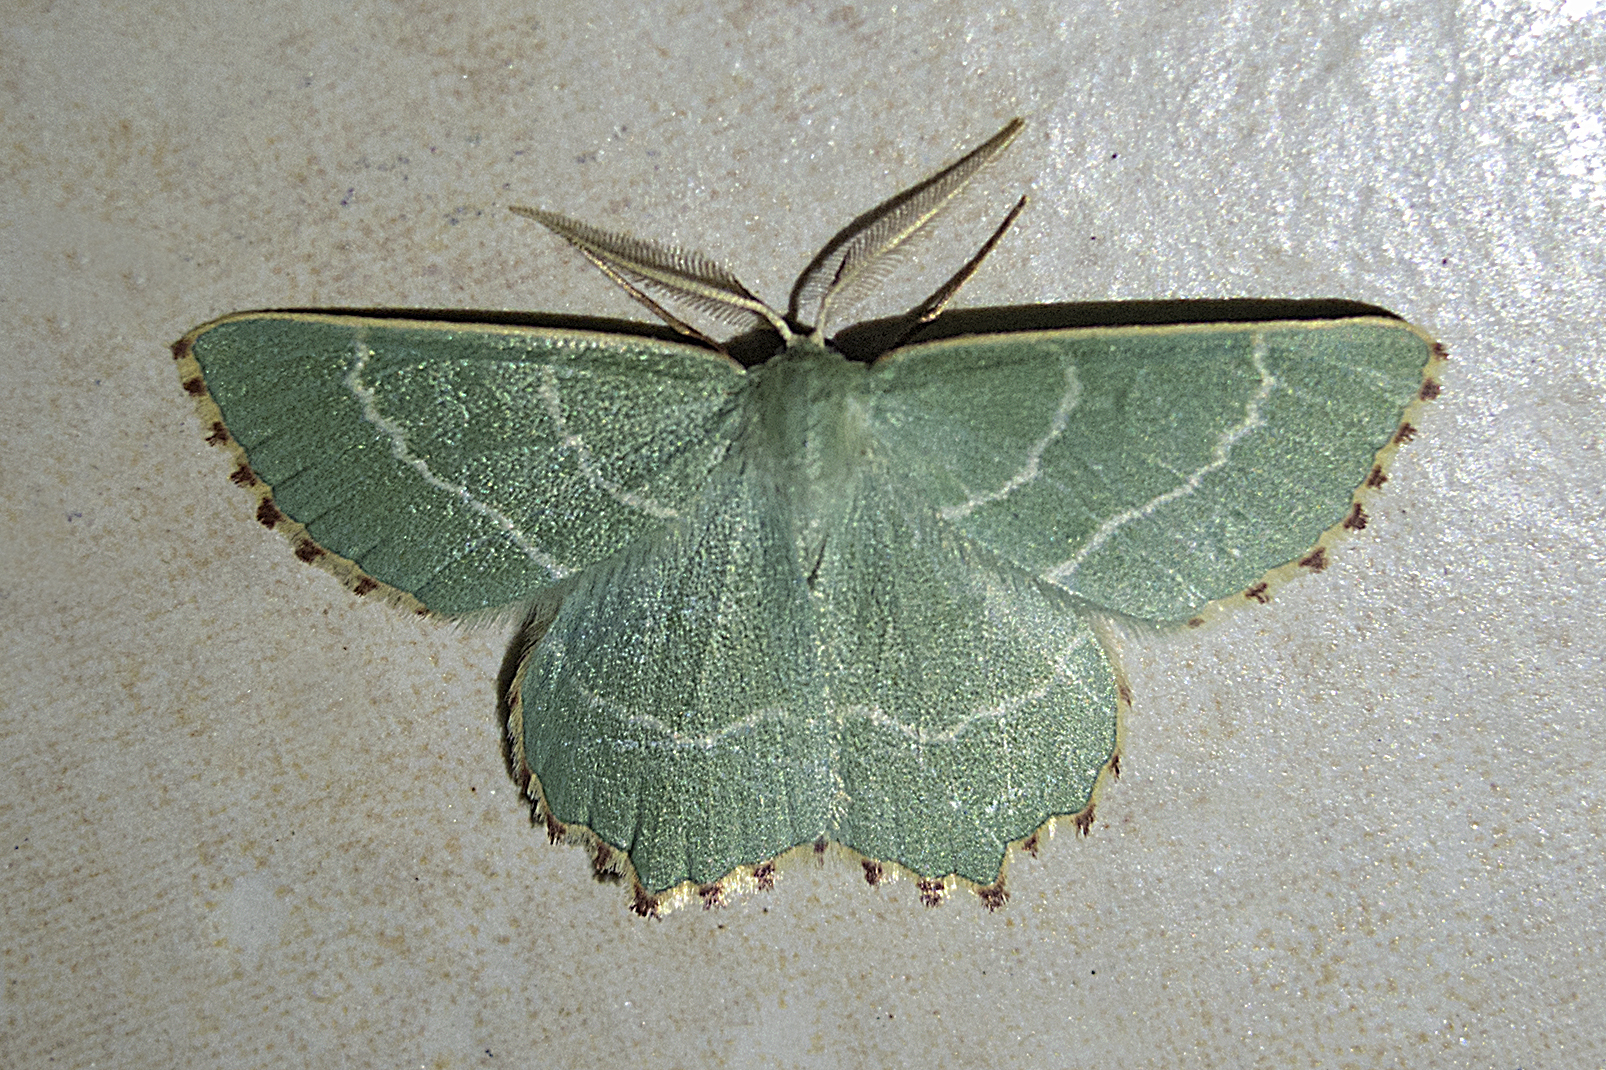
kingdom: Animalia
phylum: Arthropoda
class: Insecta
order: Lepidoptera
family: Geometridae
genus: Thalera
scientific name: Thalera fimbrialis
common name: Sussex emerald
